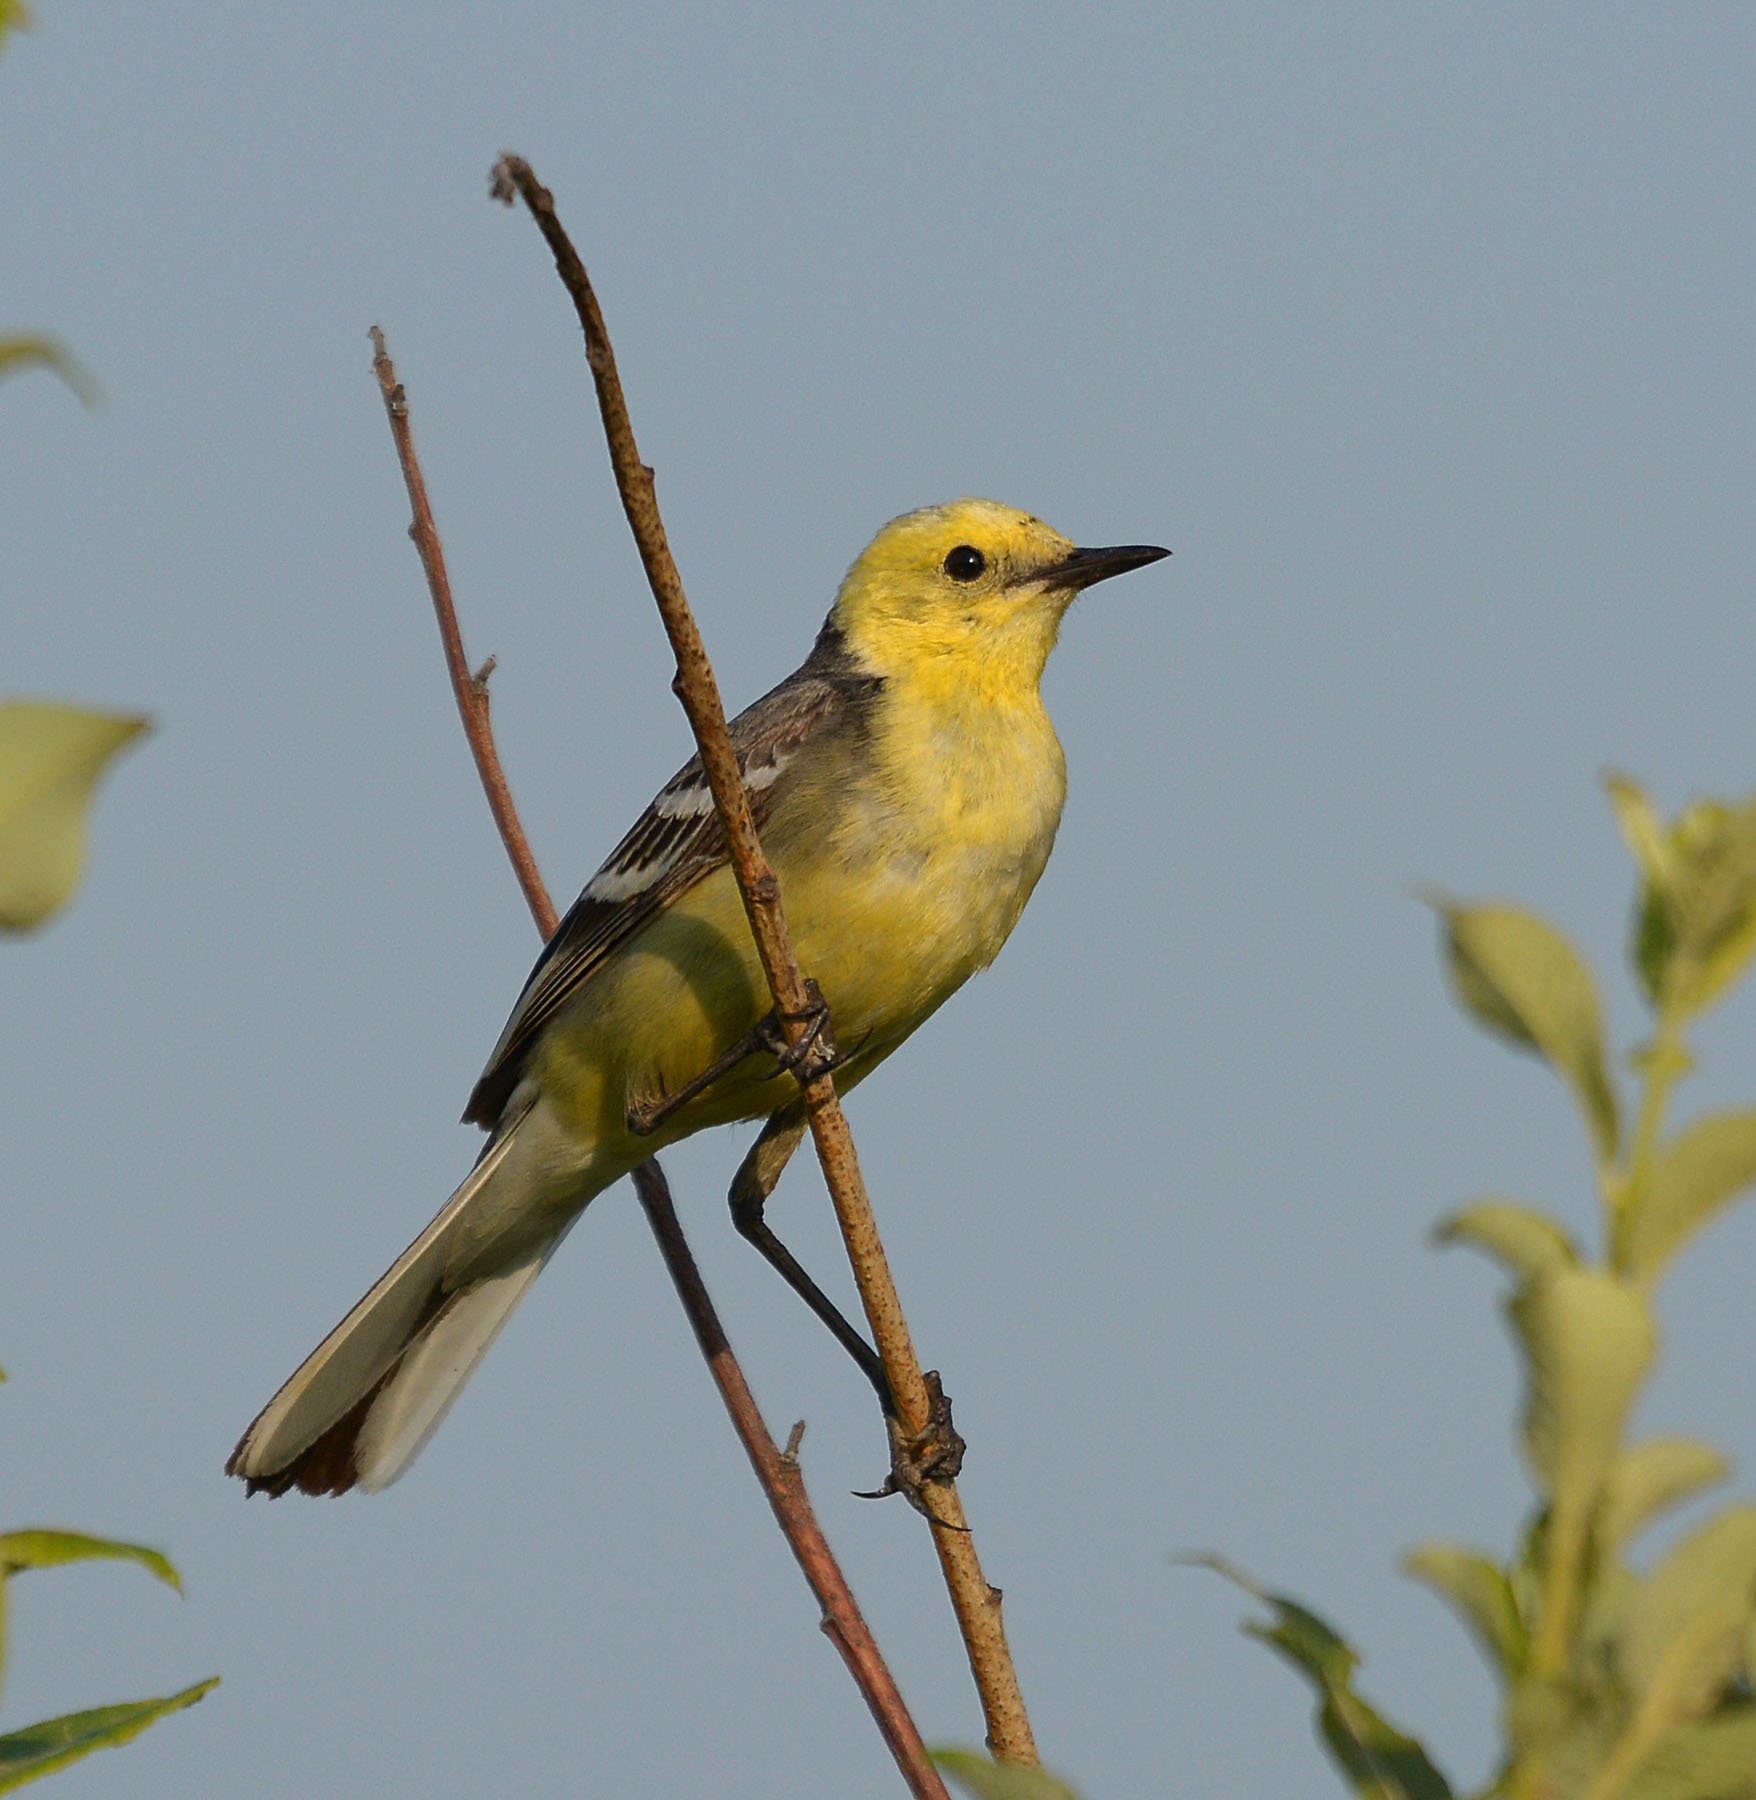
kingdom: Animalia
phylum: Chordata
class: Aves
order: Passeriformes
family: Motacillidae
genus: Motacilla
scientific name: Motacilla citreola
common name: Citrine wagtail
